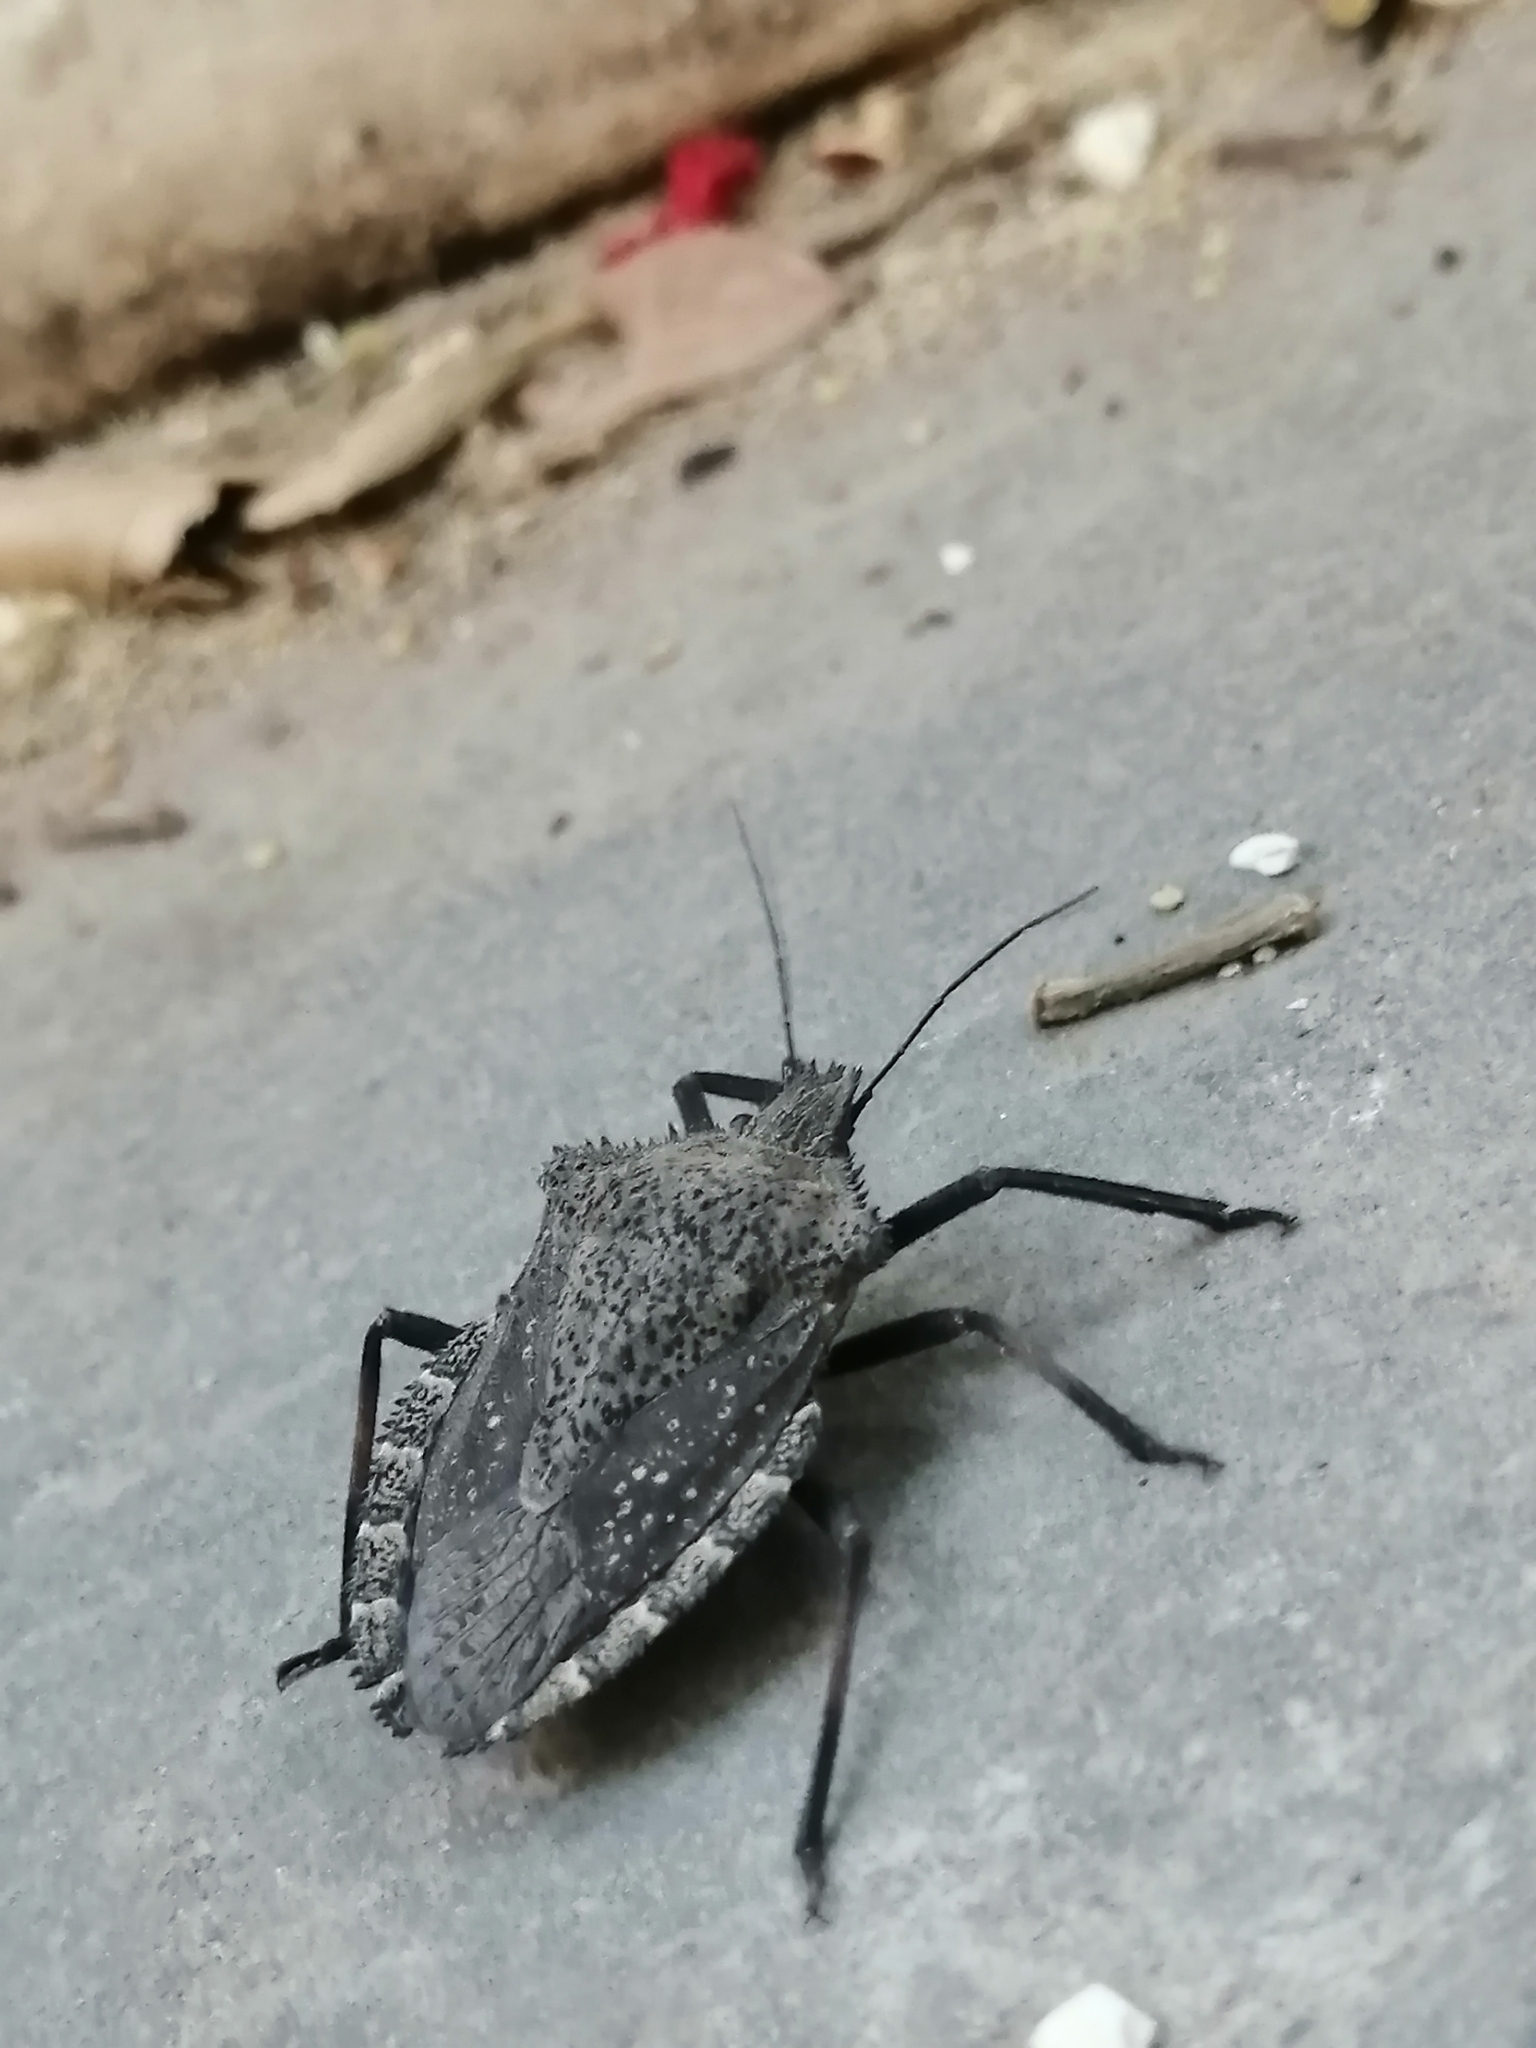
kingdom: Animalia
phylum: Arthropoda
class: Insecta
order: Hemiptera
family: Pentatomidae
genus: Mustha
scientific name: Mustha spinosula
